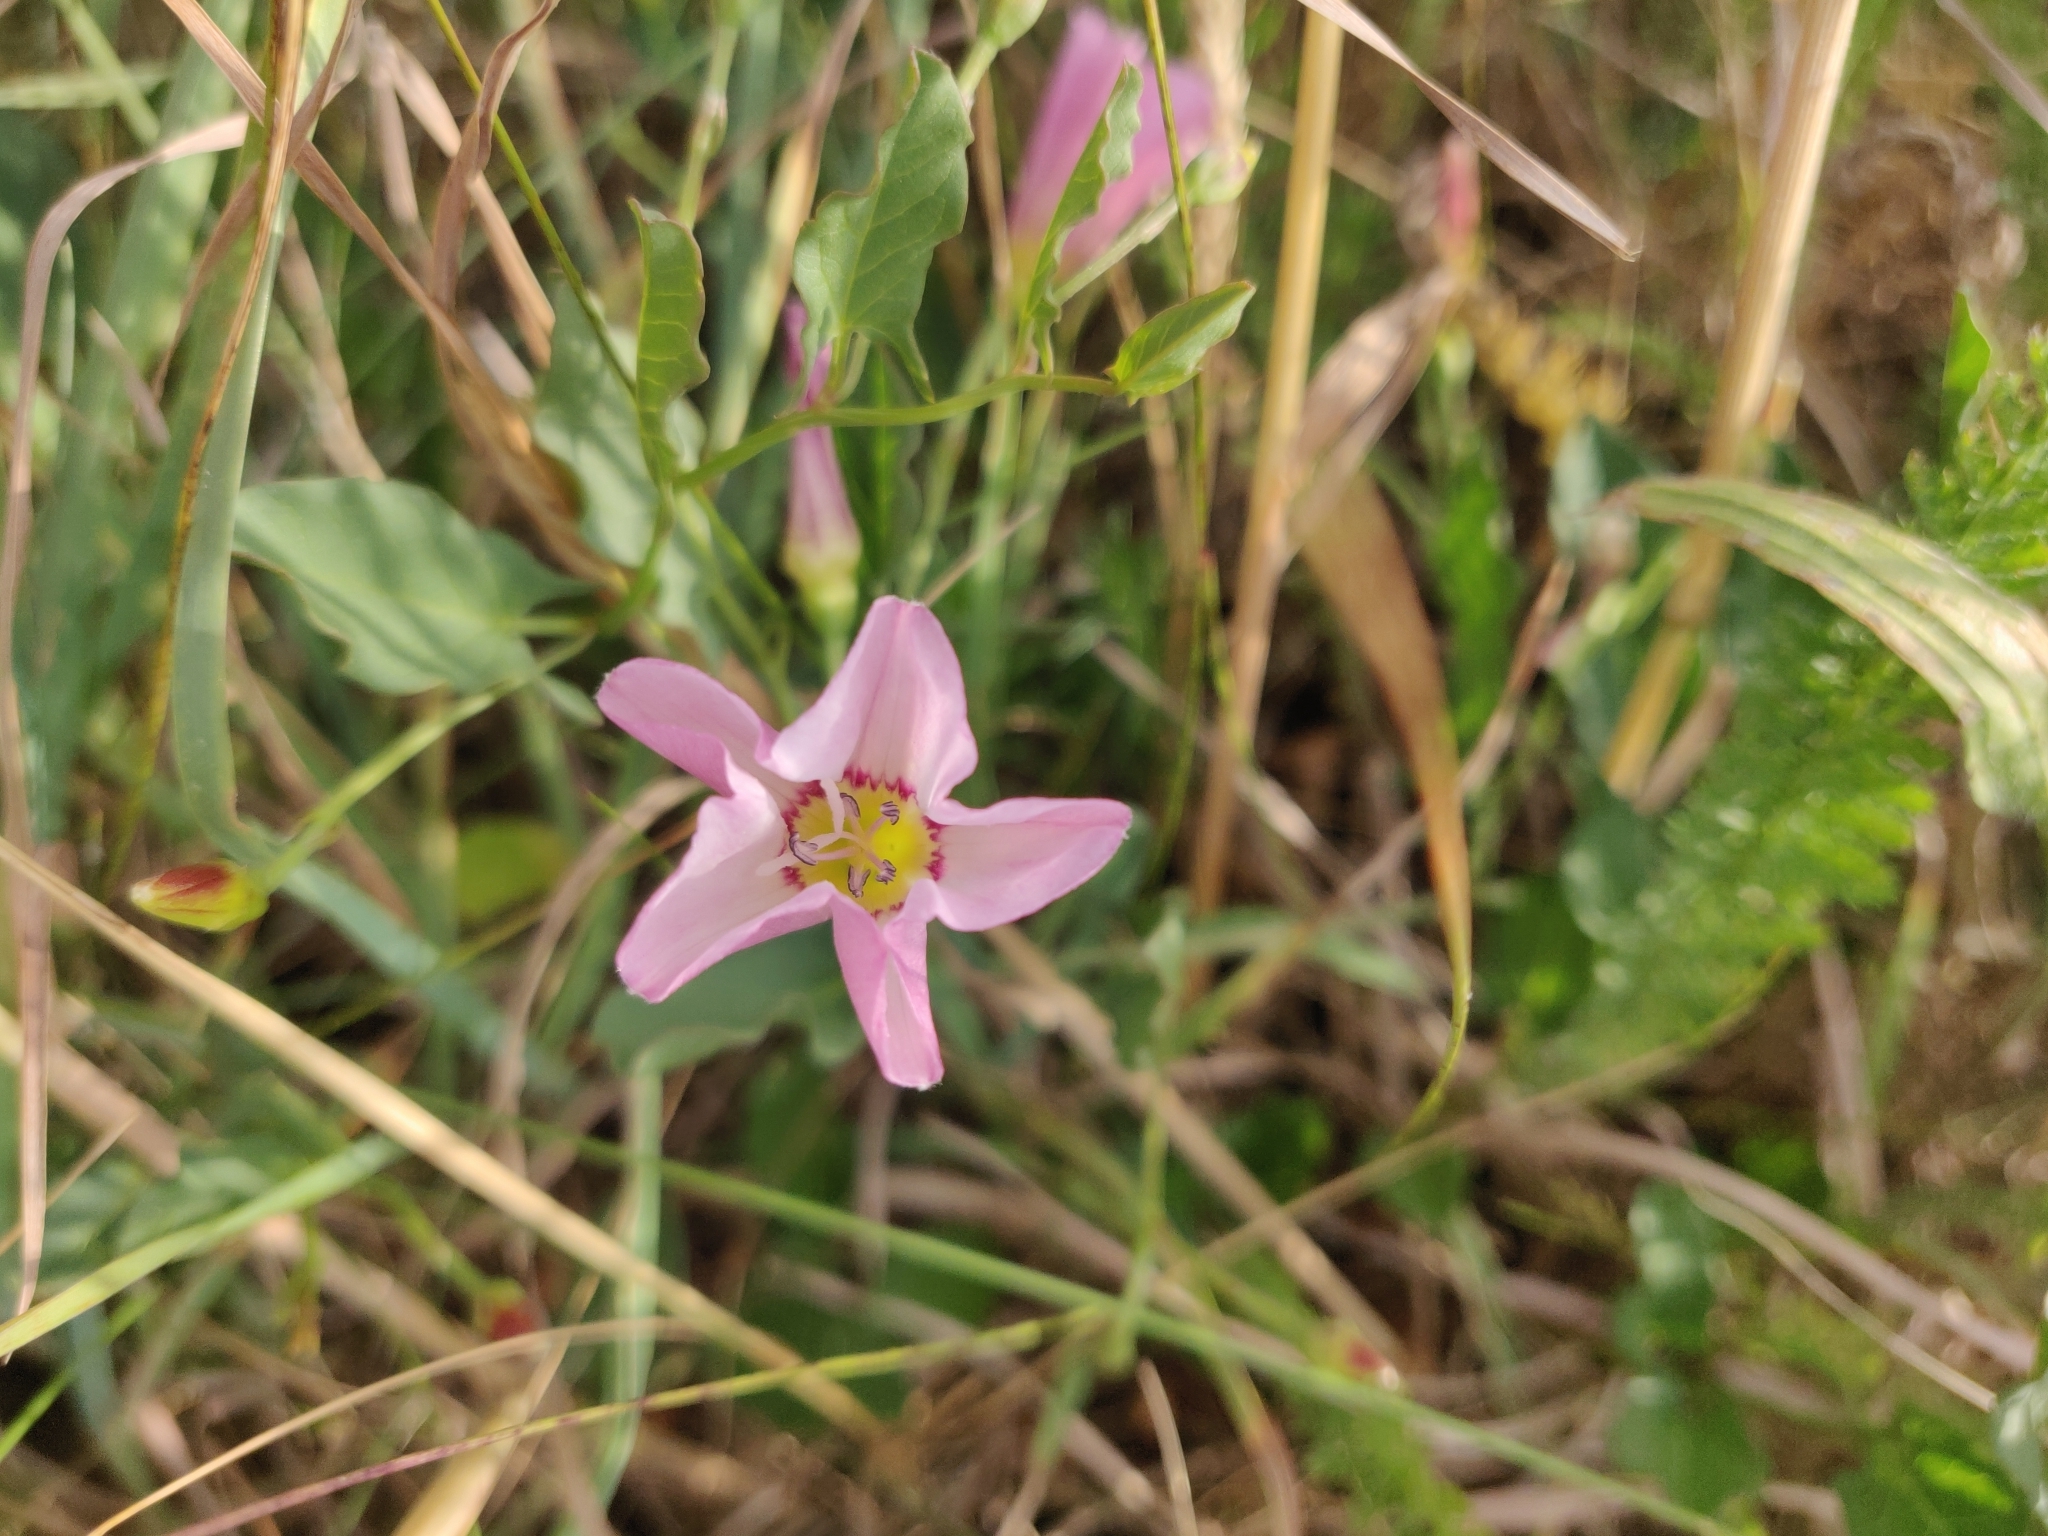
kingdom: Plantae
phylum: Tracheophyta
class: Magnoliopsida
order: Solanales
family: Convolvulaceae
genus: Convolvulus
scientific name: Convolvulus arvensis
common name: Field bindweed
